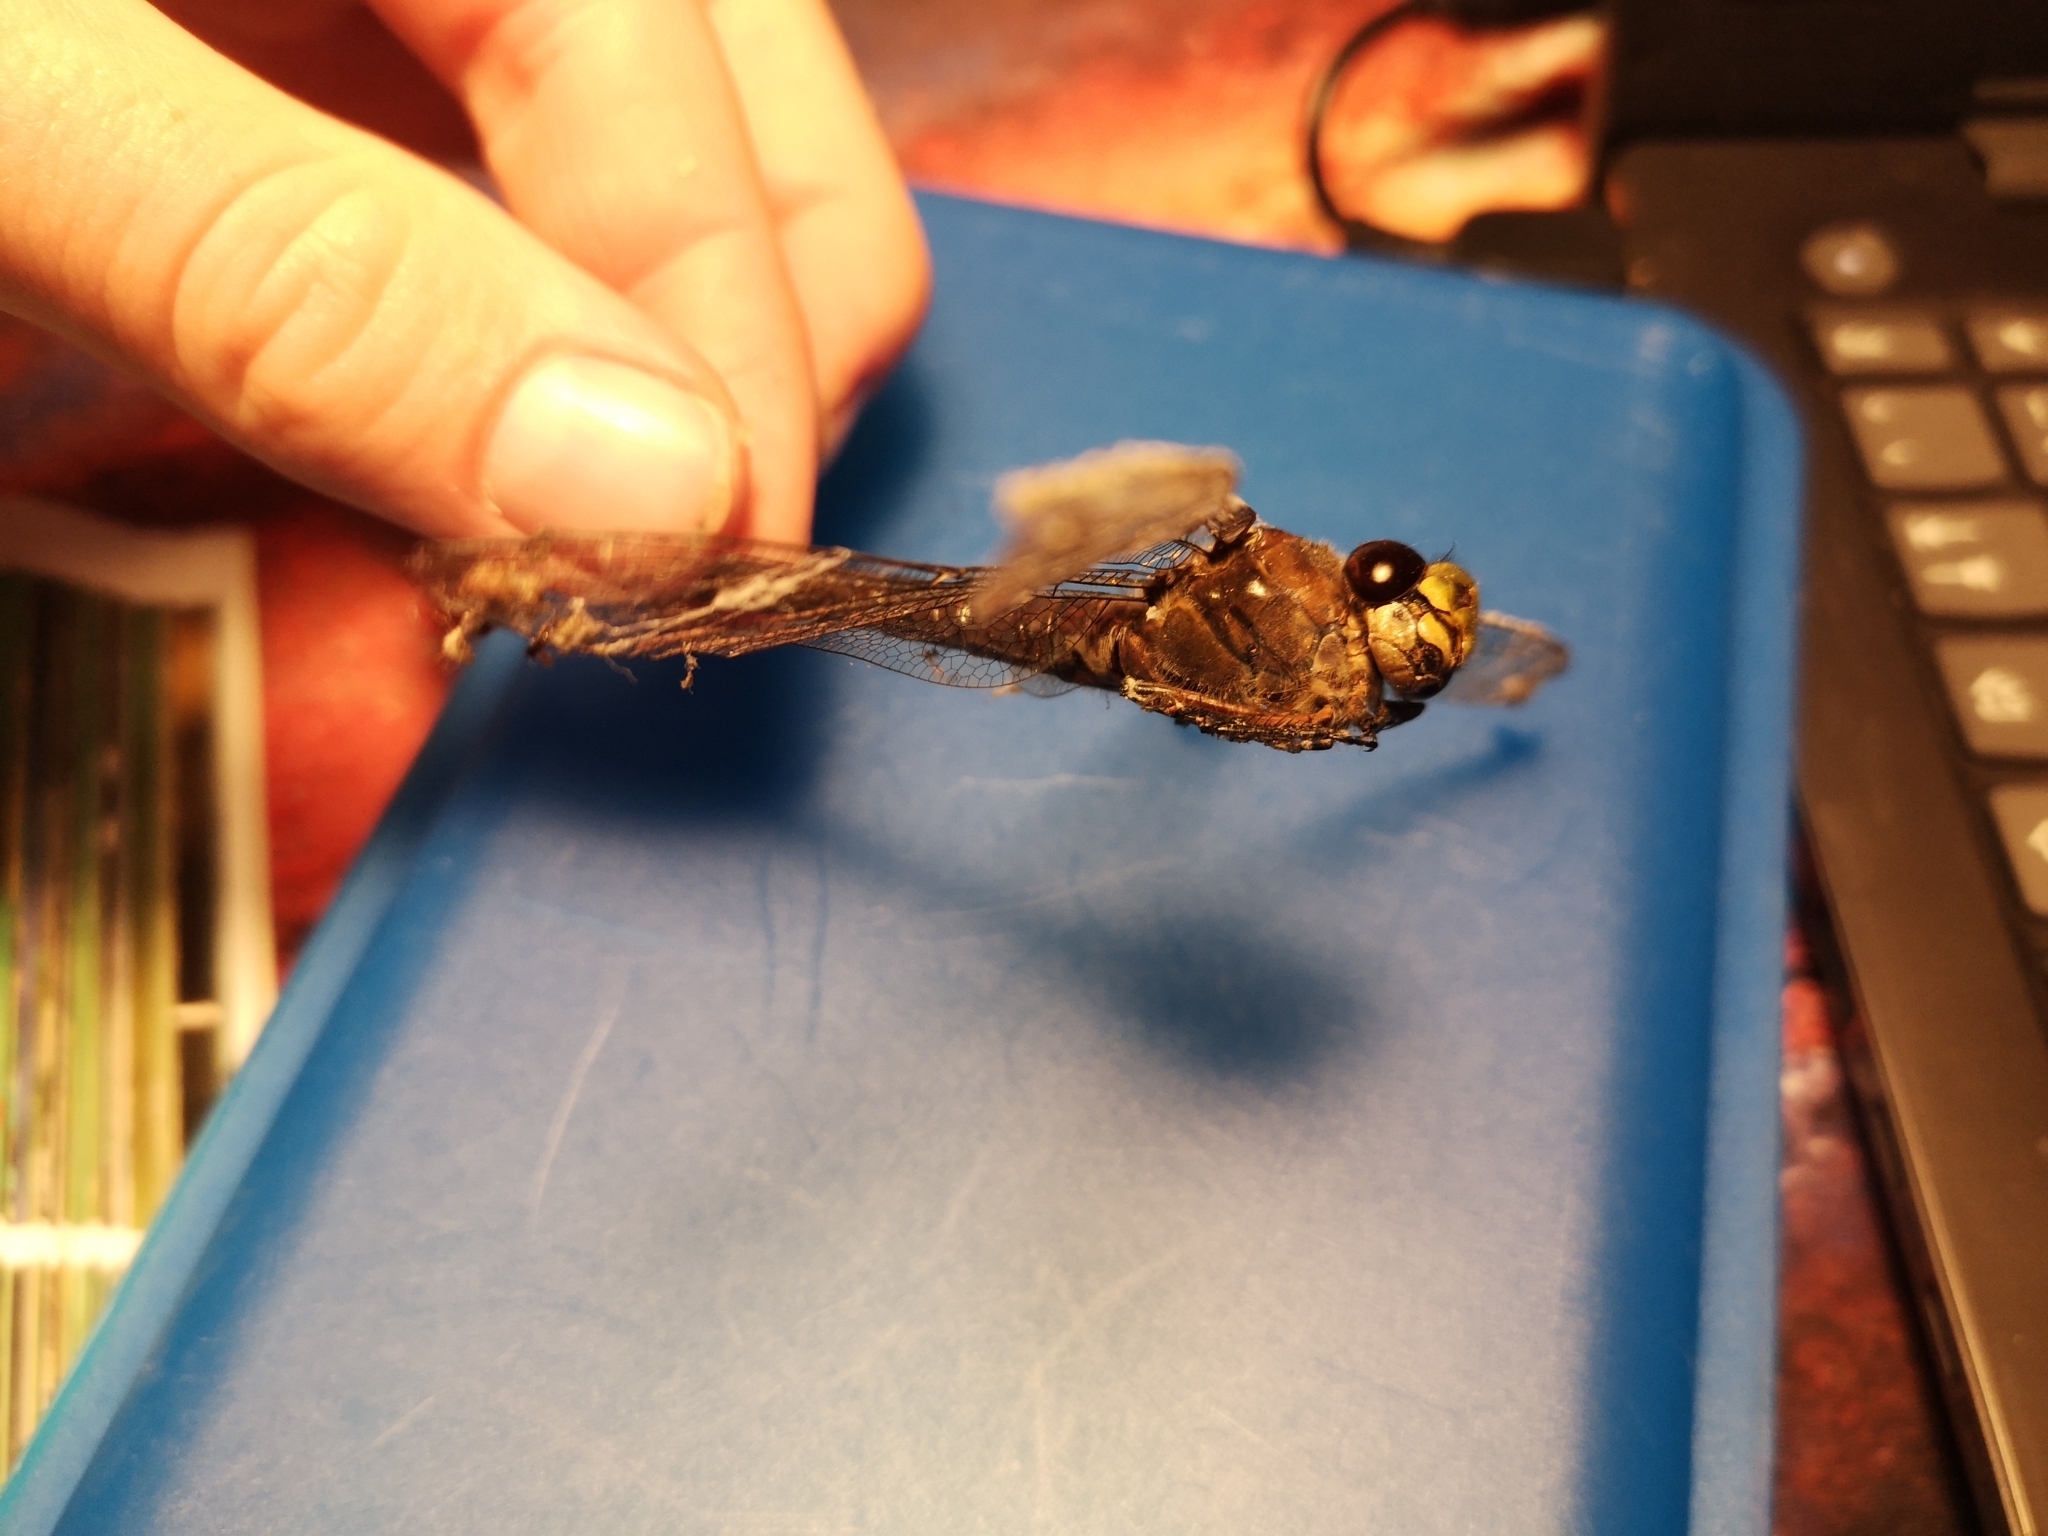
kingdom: Animalia
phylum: Arthropoda
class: Insecta
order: Odonata
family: Aeshnidae
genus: Aeshna
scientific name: Aeshna juncea
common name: Moorland hawker
